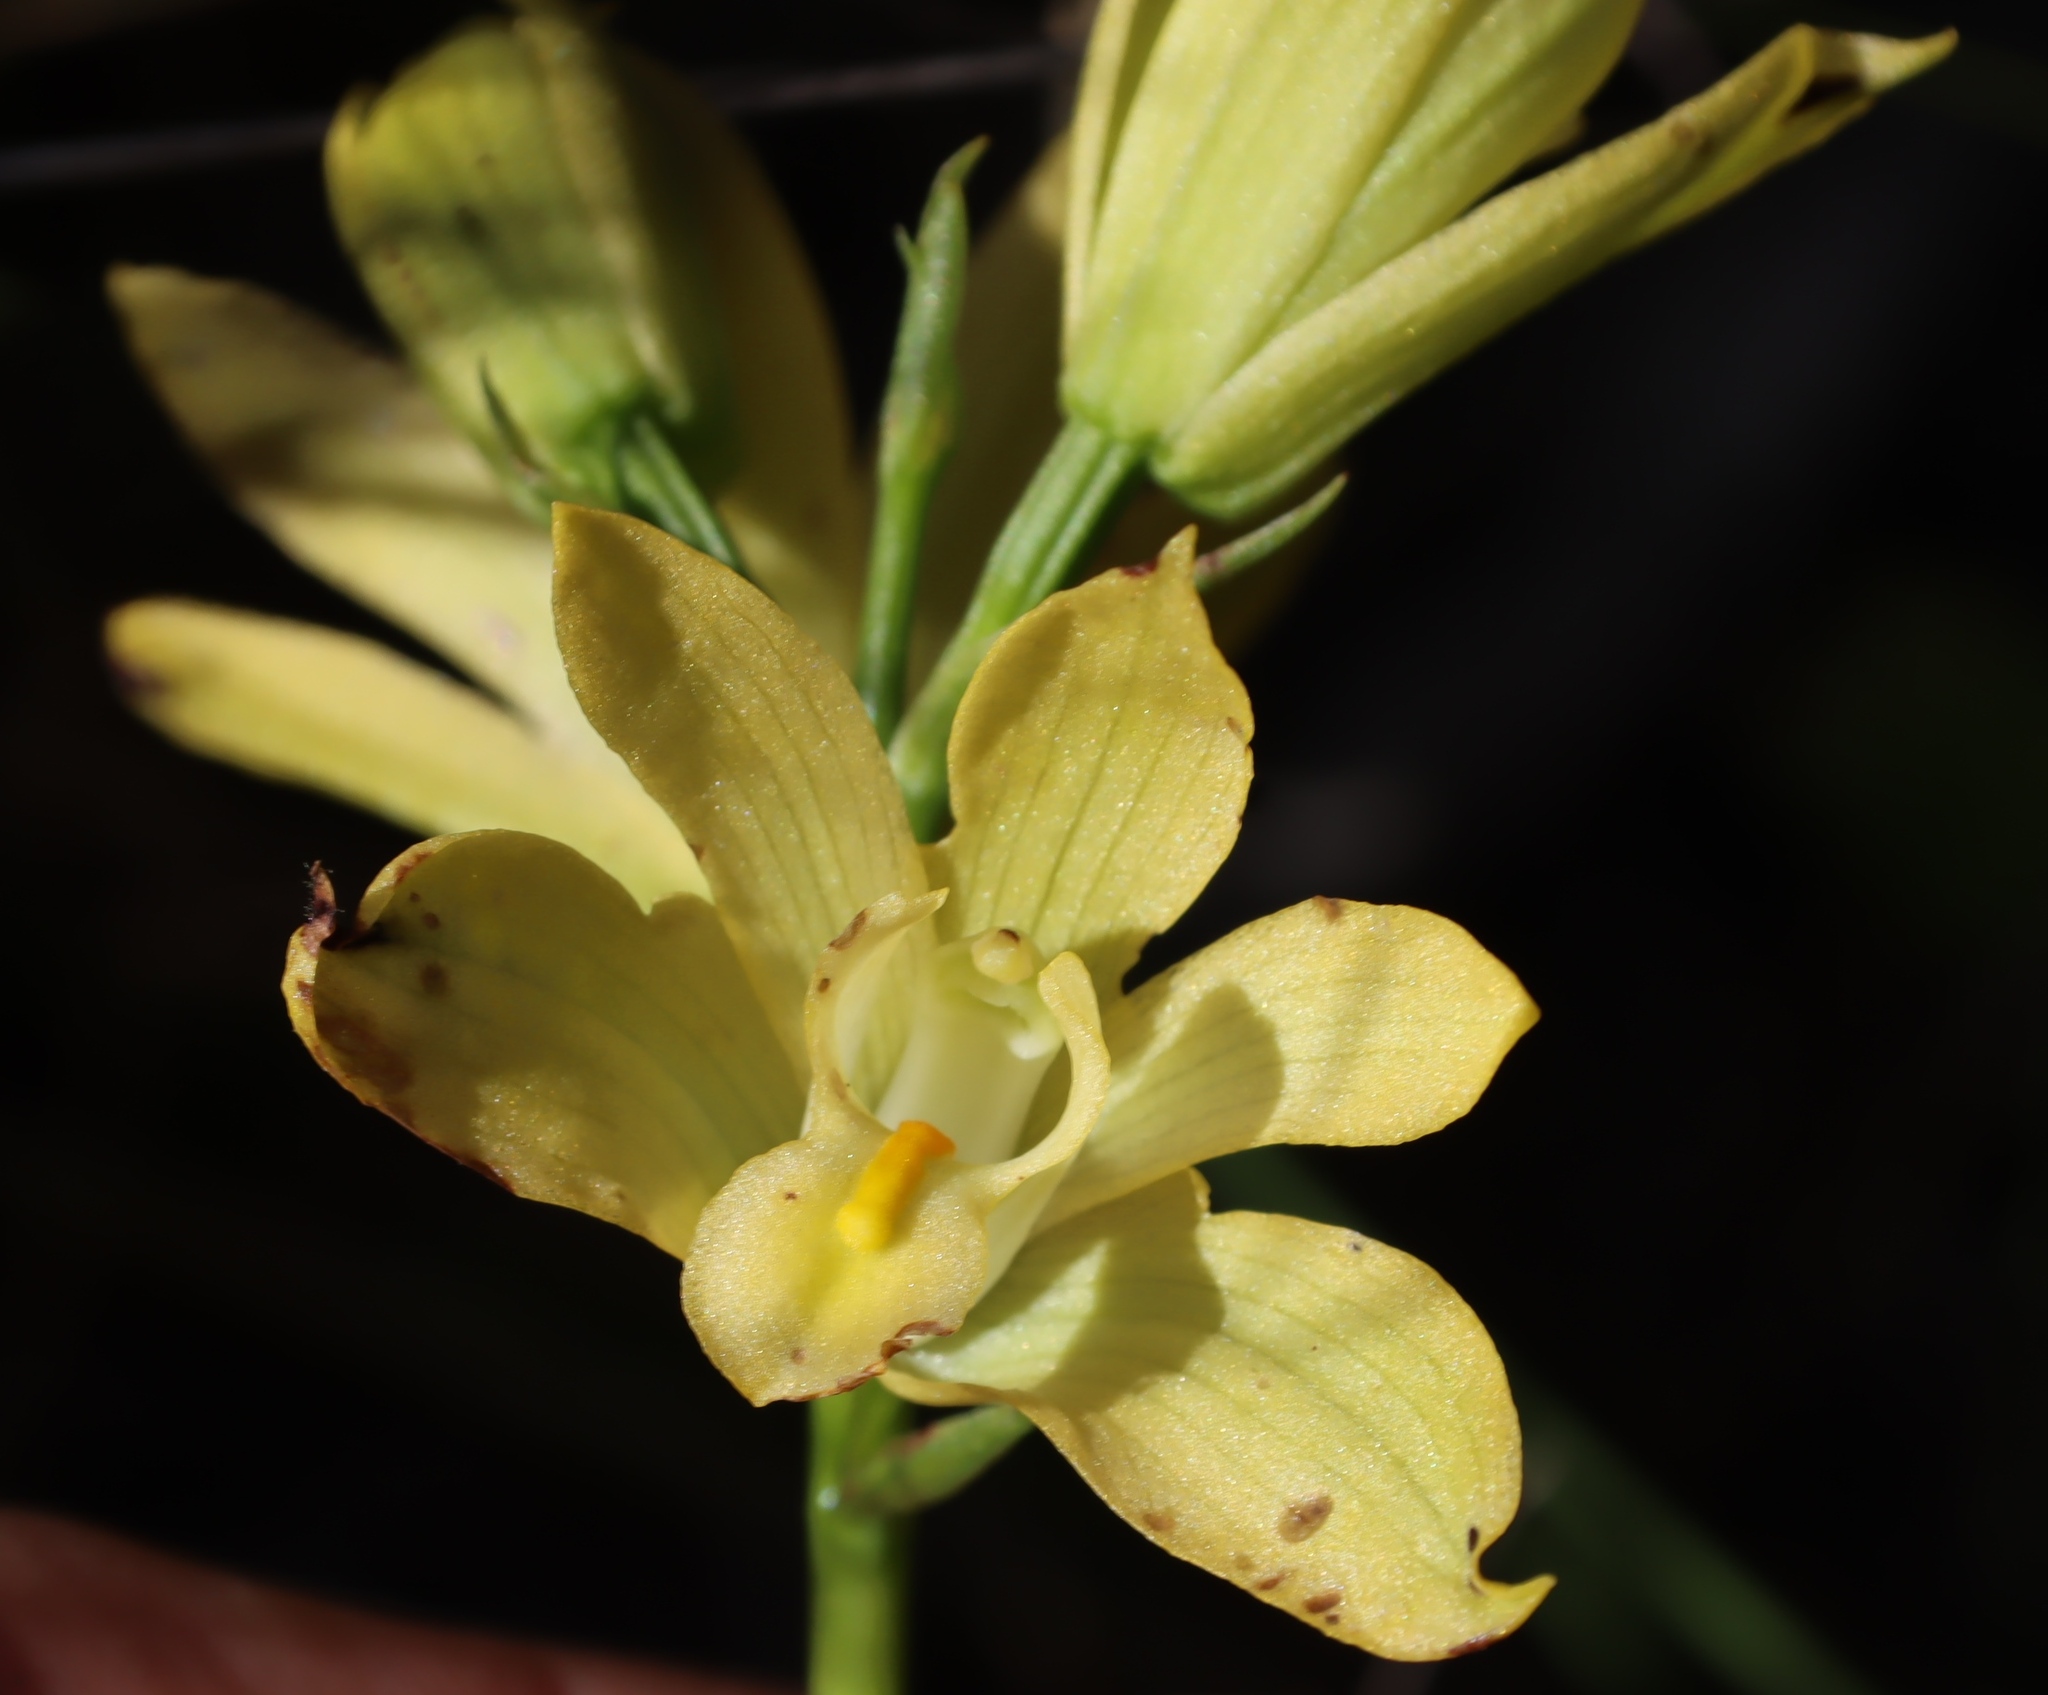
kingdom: Plantae
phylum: Tracheophyta
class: Liliopsida
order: Asparagales
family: Orchidaceae
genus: Eulophia
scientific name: Eulophia tabularis
